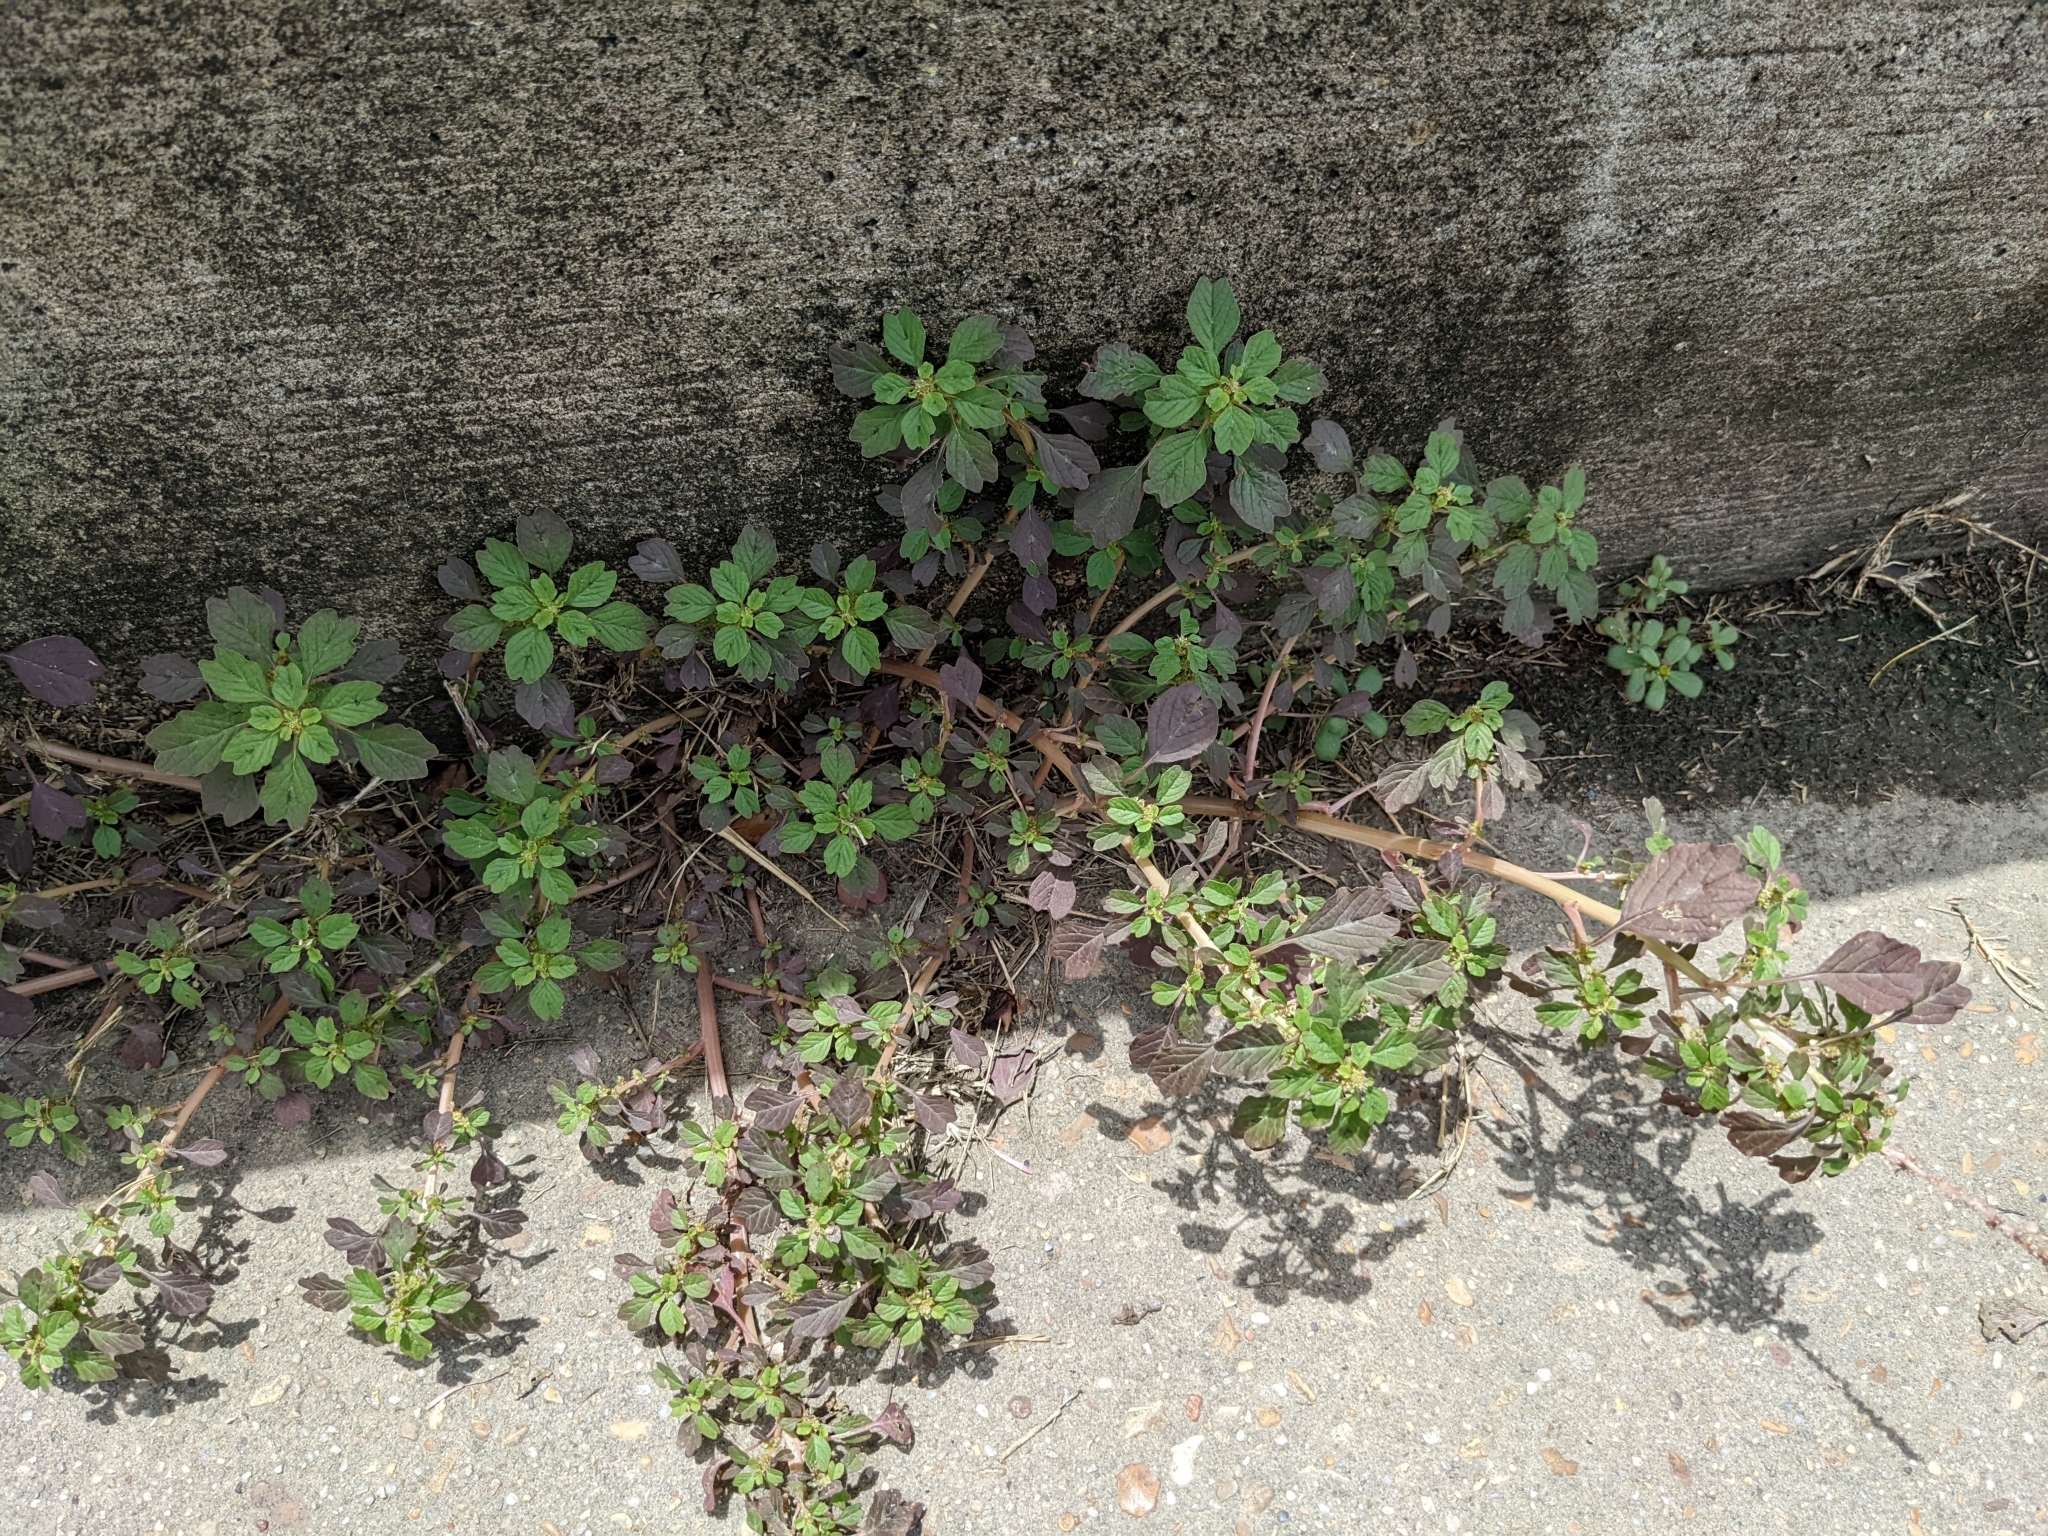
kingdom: Plantae
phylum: Tracheophyta
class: Magnoliopsida
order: Caryophyllales
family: Amaranthaceae
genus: Amaranthus
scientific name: Amaranthus blitum
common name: Purple amaranth
